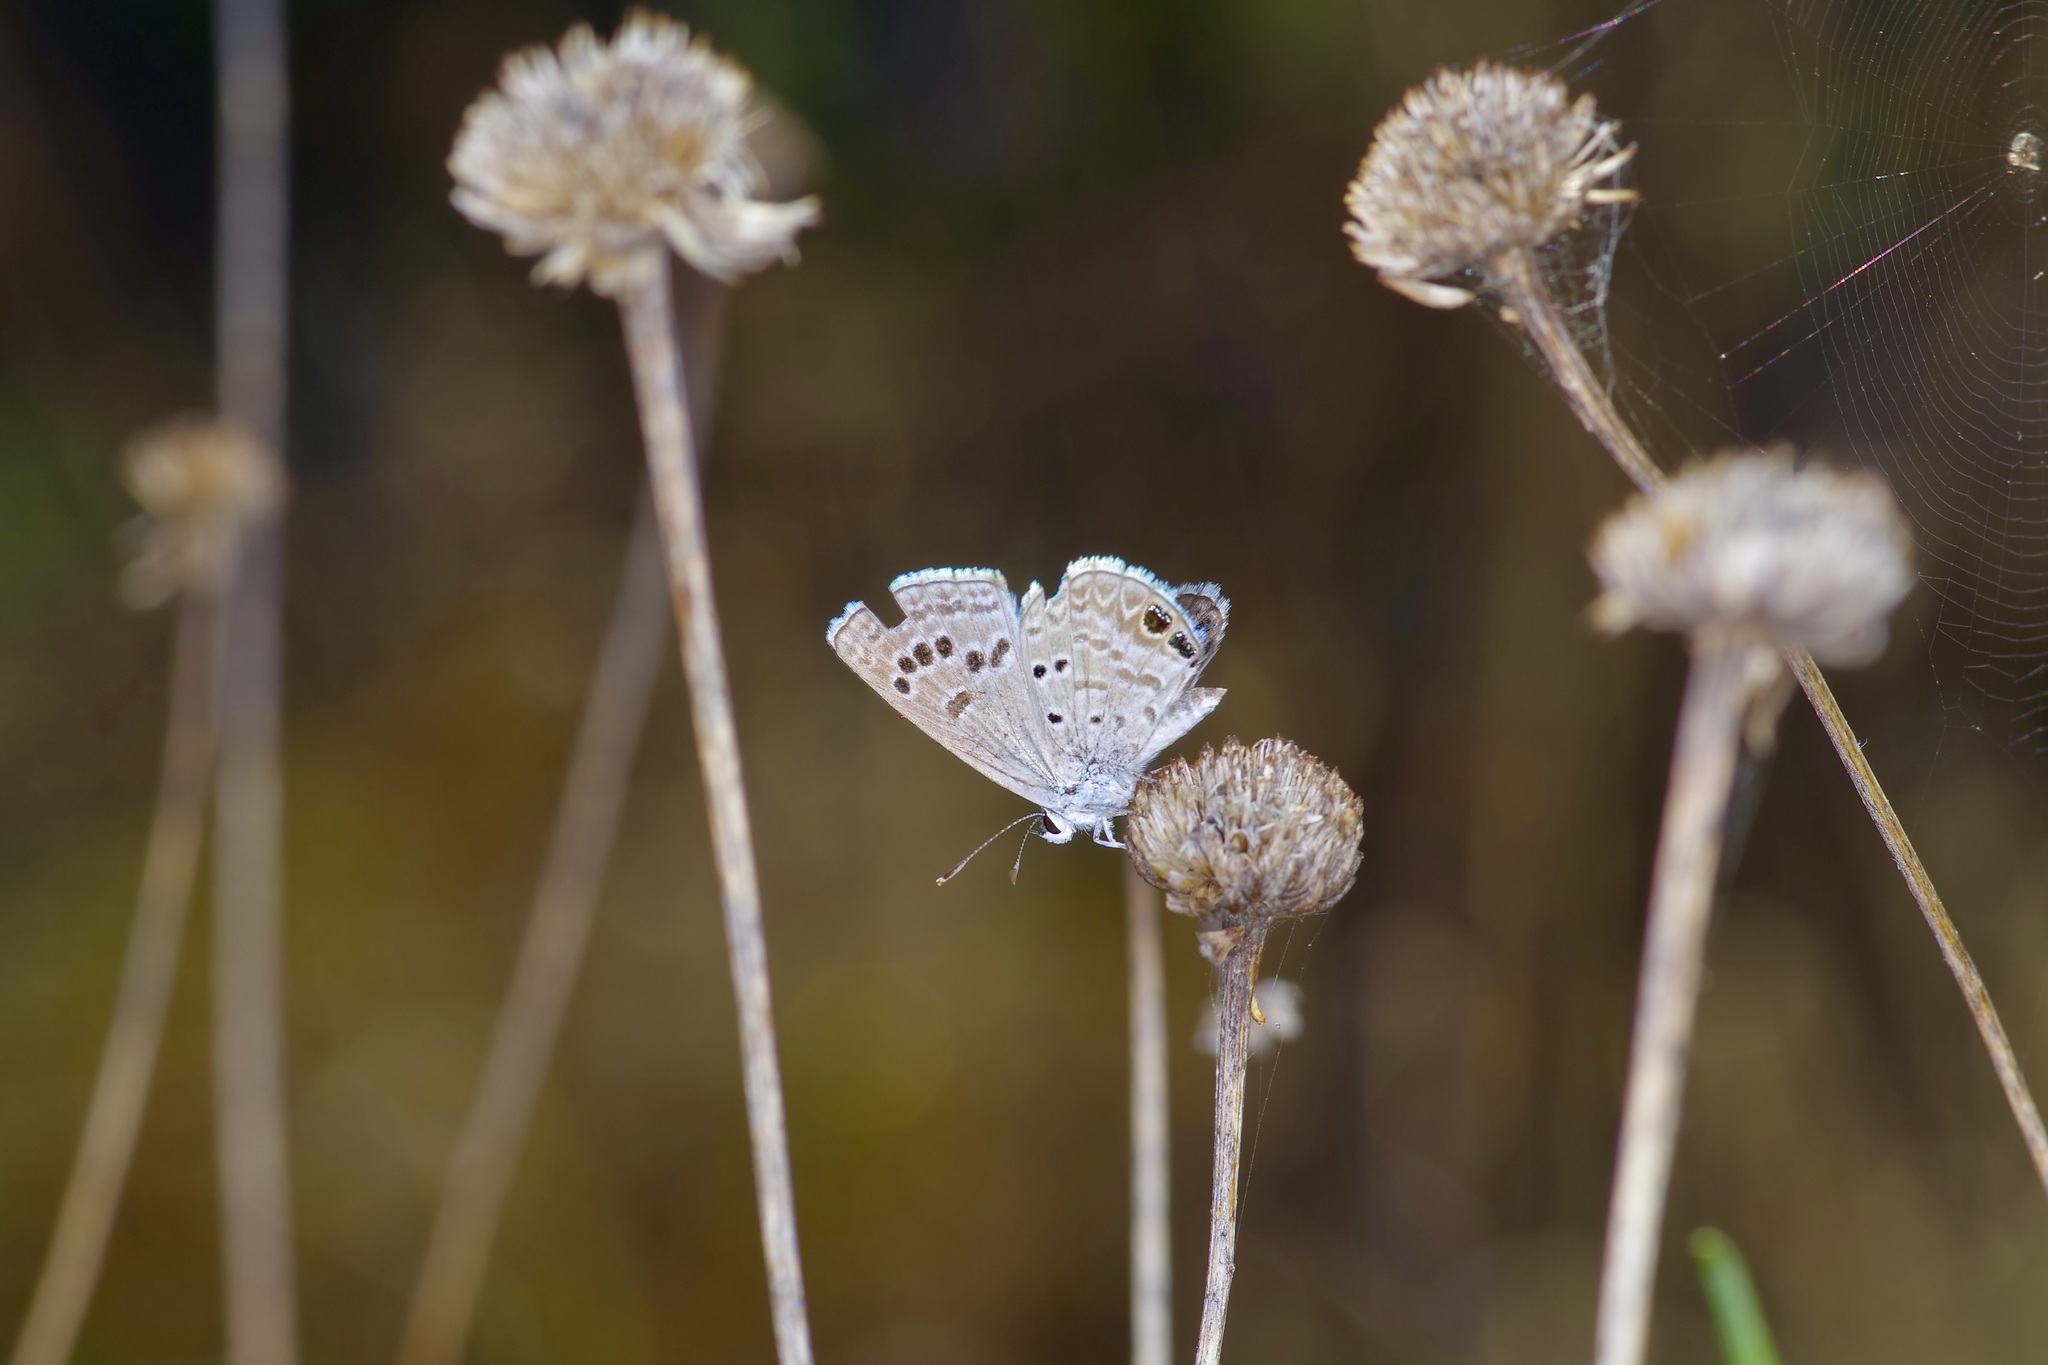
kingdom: Animalia
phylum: Arthropoda
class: Insecta
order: Lepidoptera
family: Lycaenidae
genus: Echinargus
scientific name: Echinargus isola
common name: Reakirt's blue
